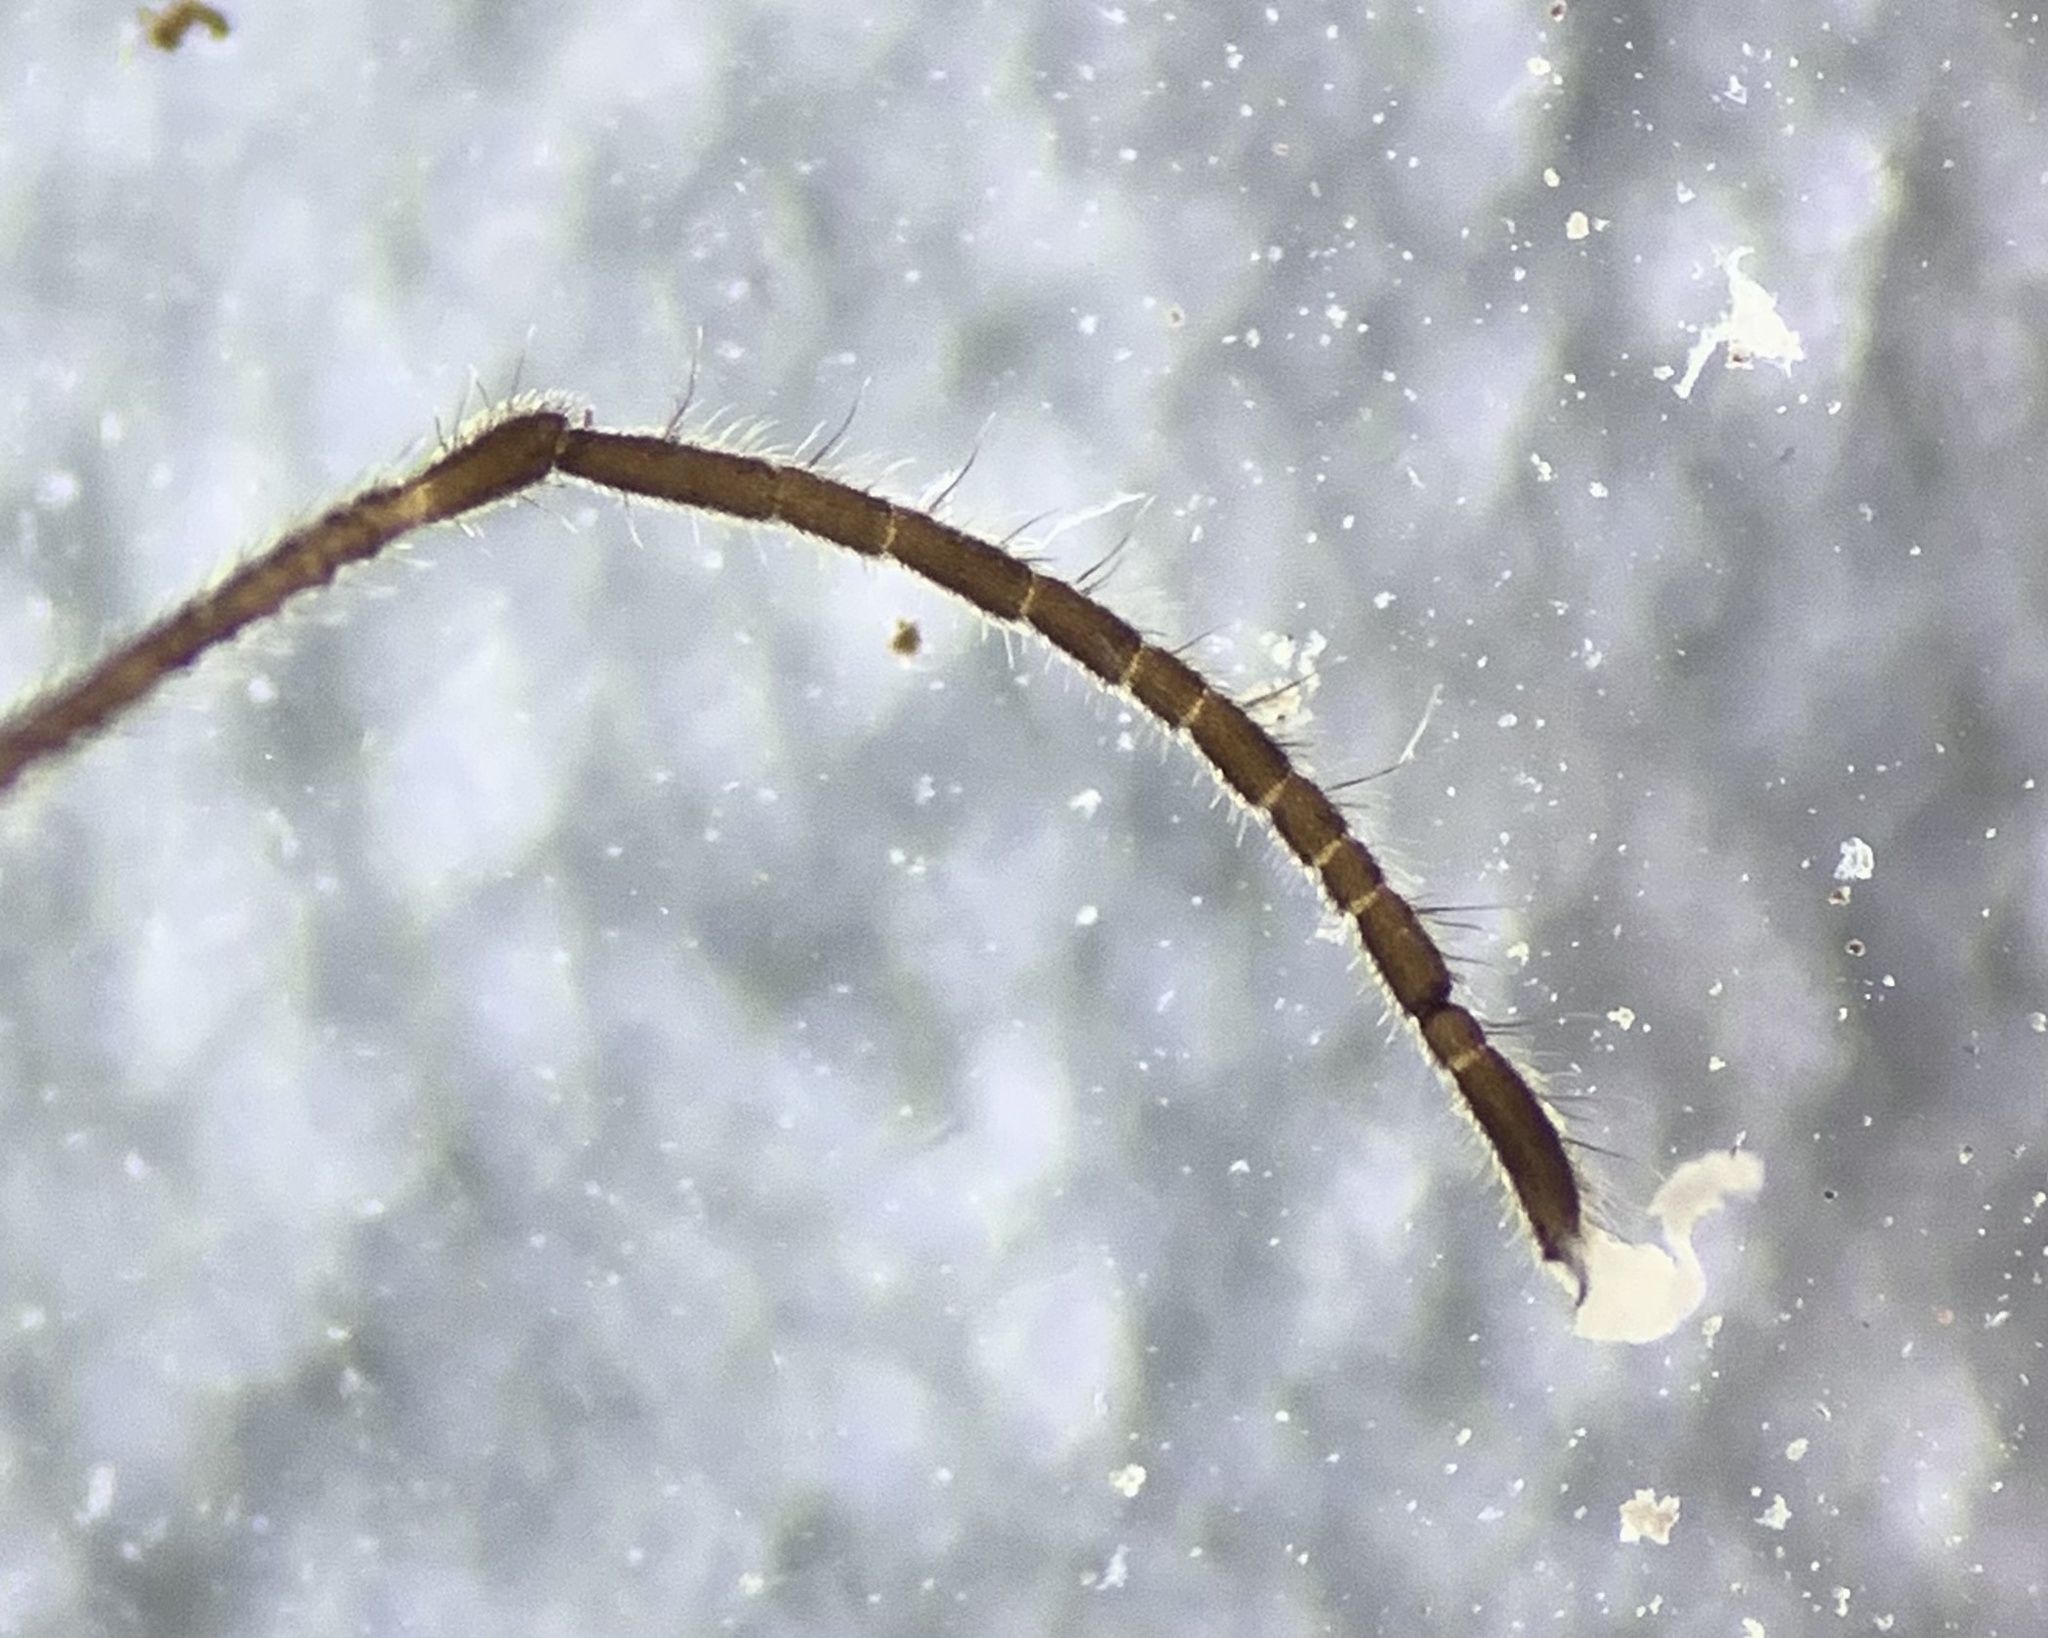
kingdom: Animalia
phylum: Arthropoda
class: Arachnida
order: Opiliones
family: Dicranolasmatidae
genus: Dicranolasma
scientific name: Dicranolasma soerensenii
